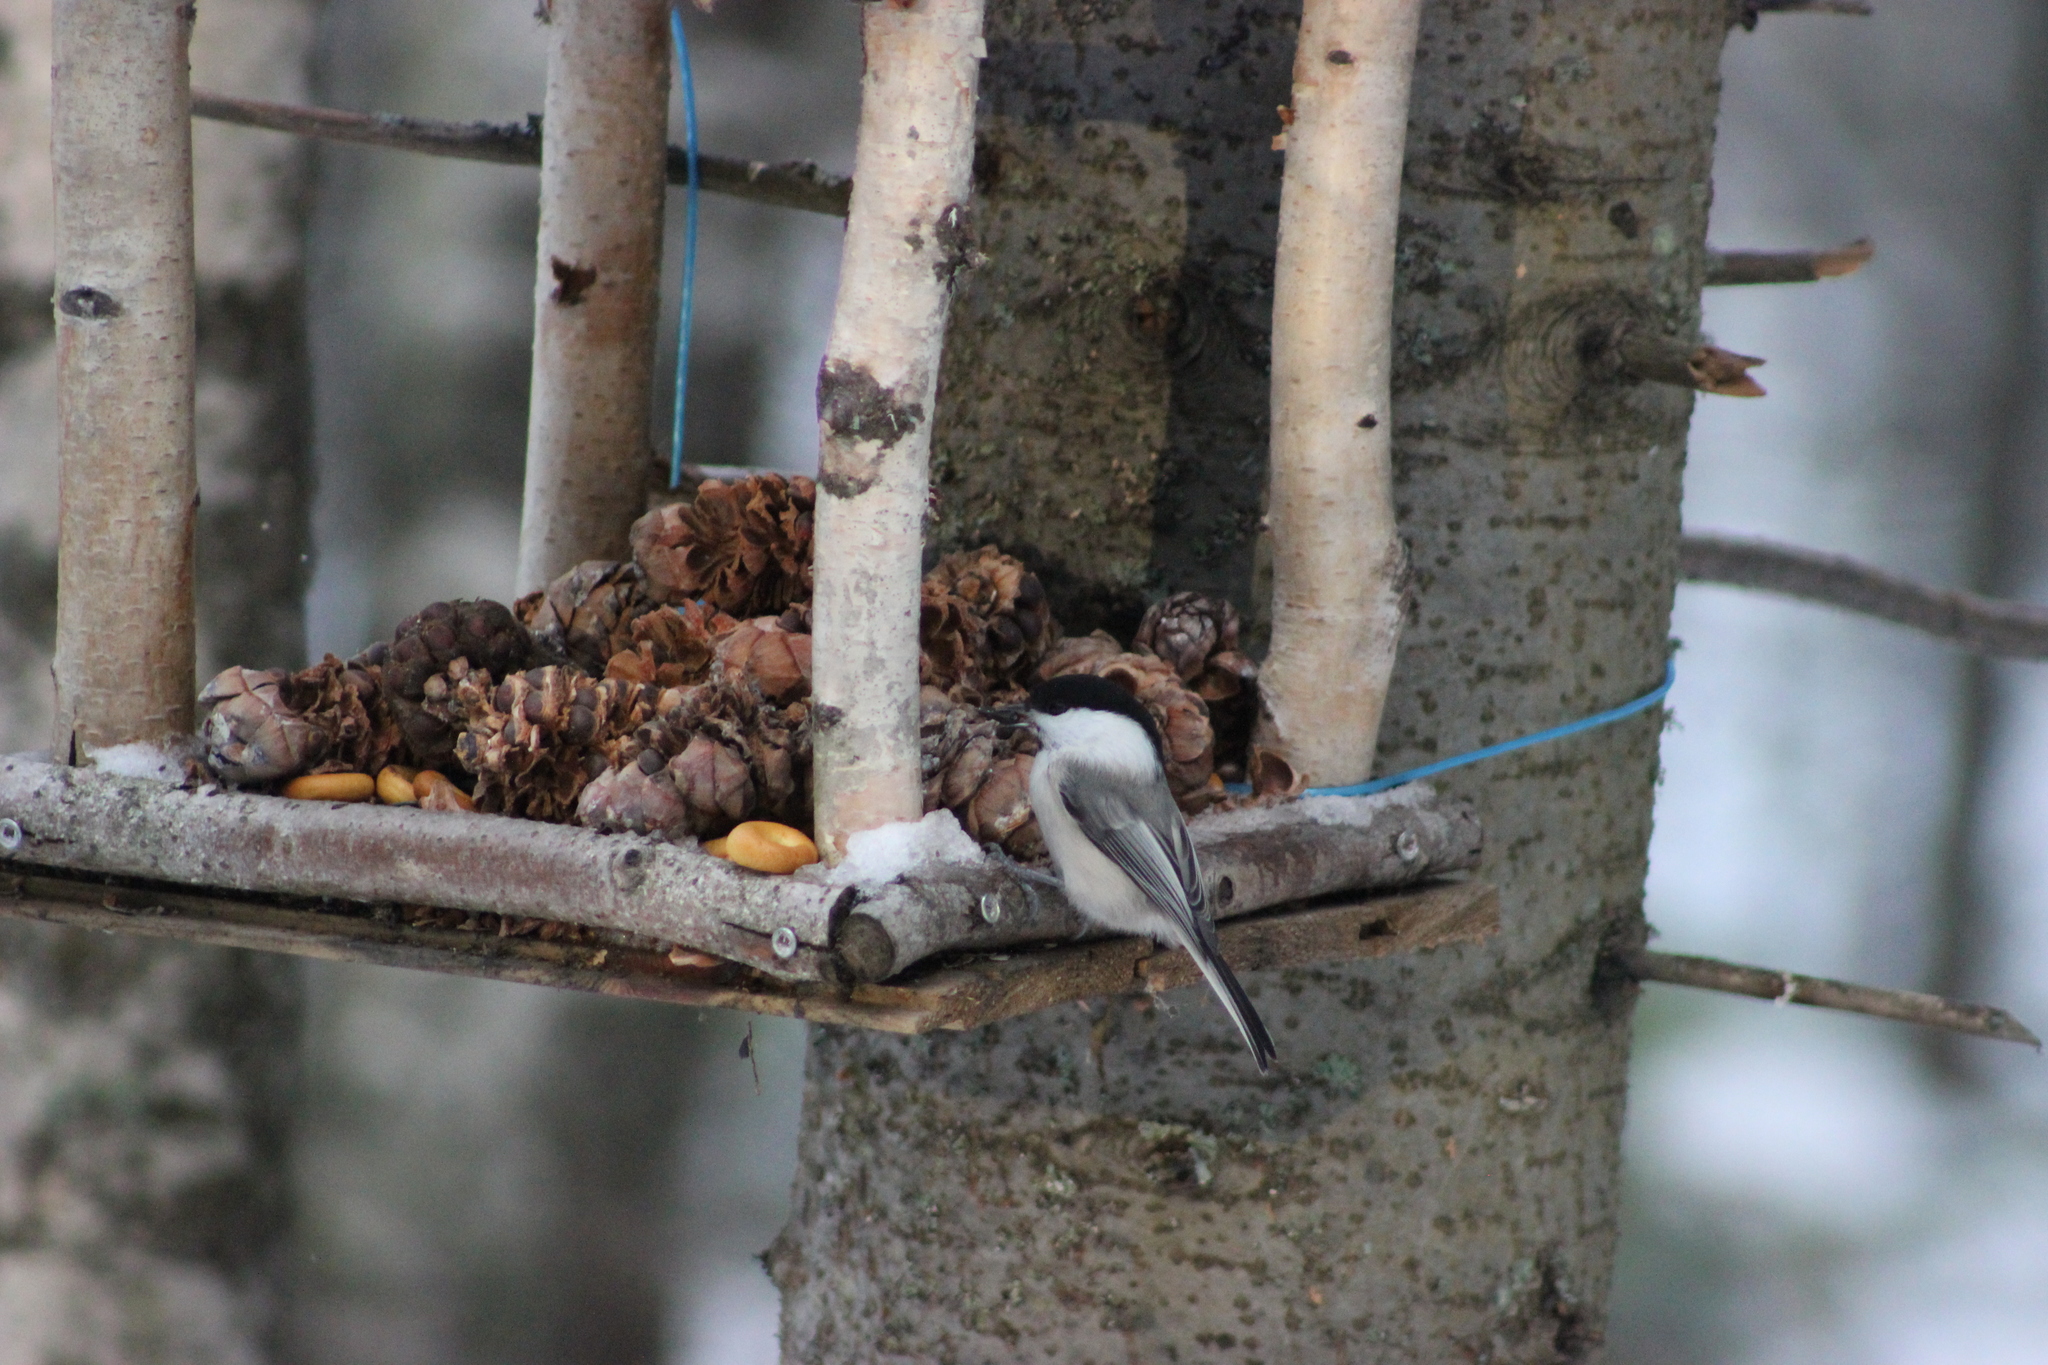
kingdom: Animalia
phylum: Chordata
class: Aves
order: Passeriformes
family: Paridae
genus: Poecile
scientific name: Poecile montanus
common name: Willow tit
